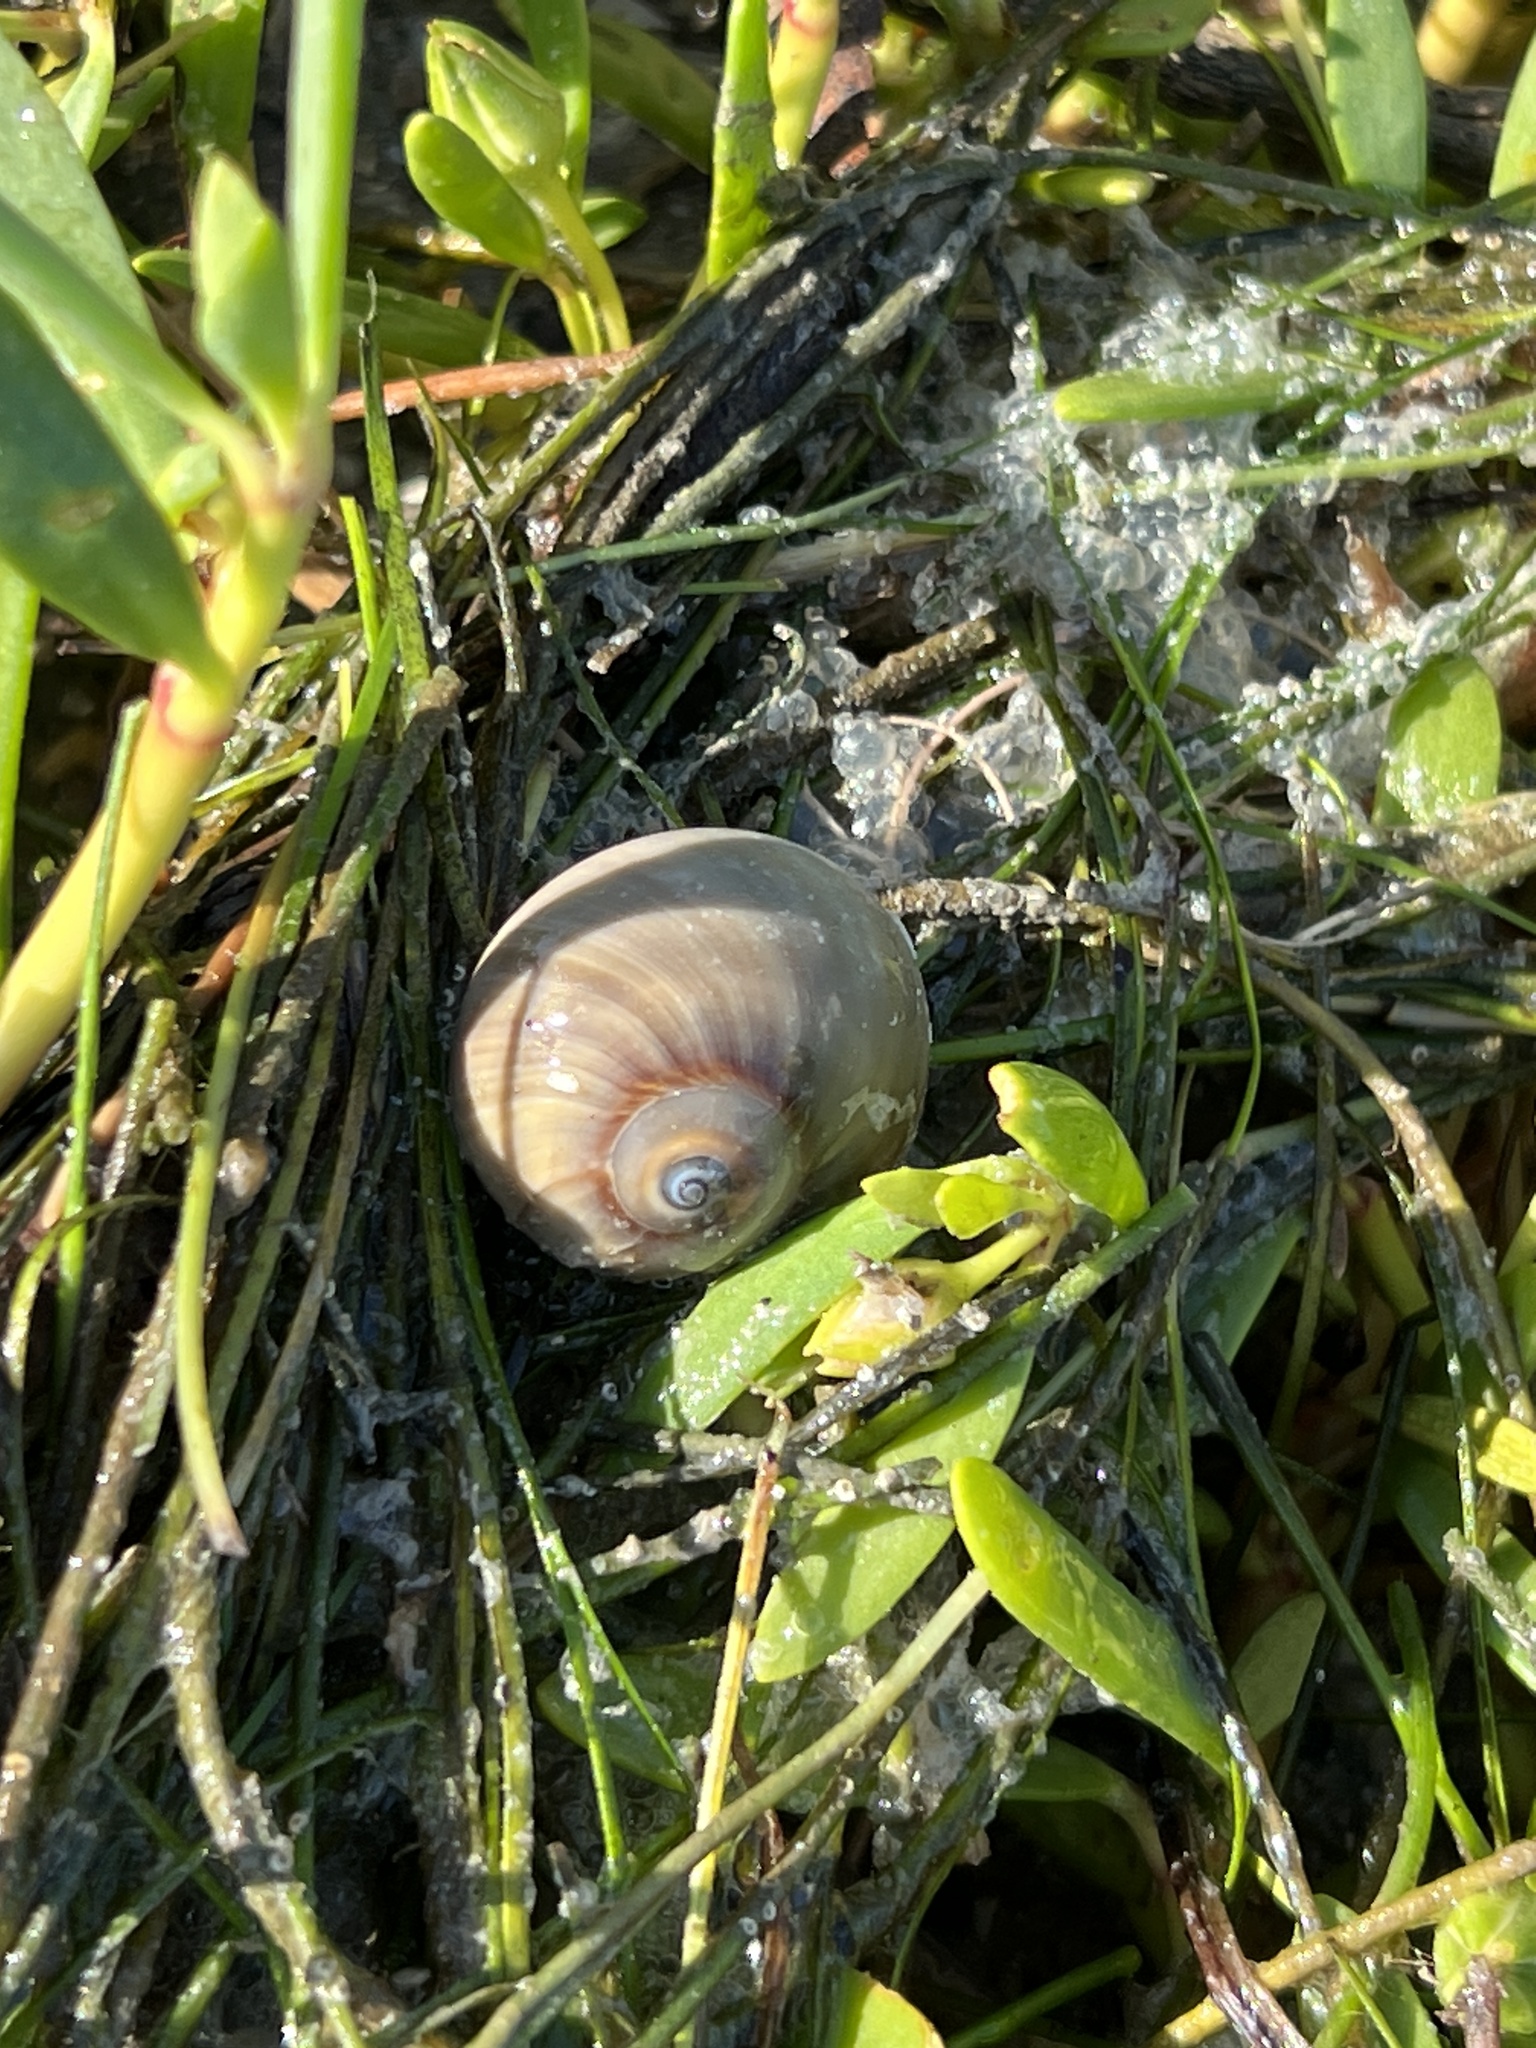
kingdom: Animalia
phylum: Mollusca
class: Gastropoda
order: Littorinimorpha
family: Naticidae
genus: Neverita
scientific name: Neverita delessertiana
